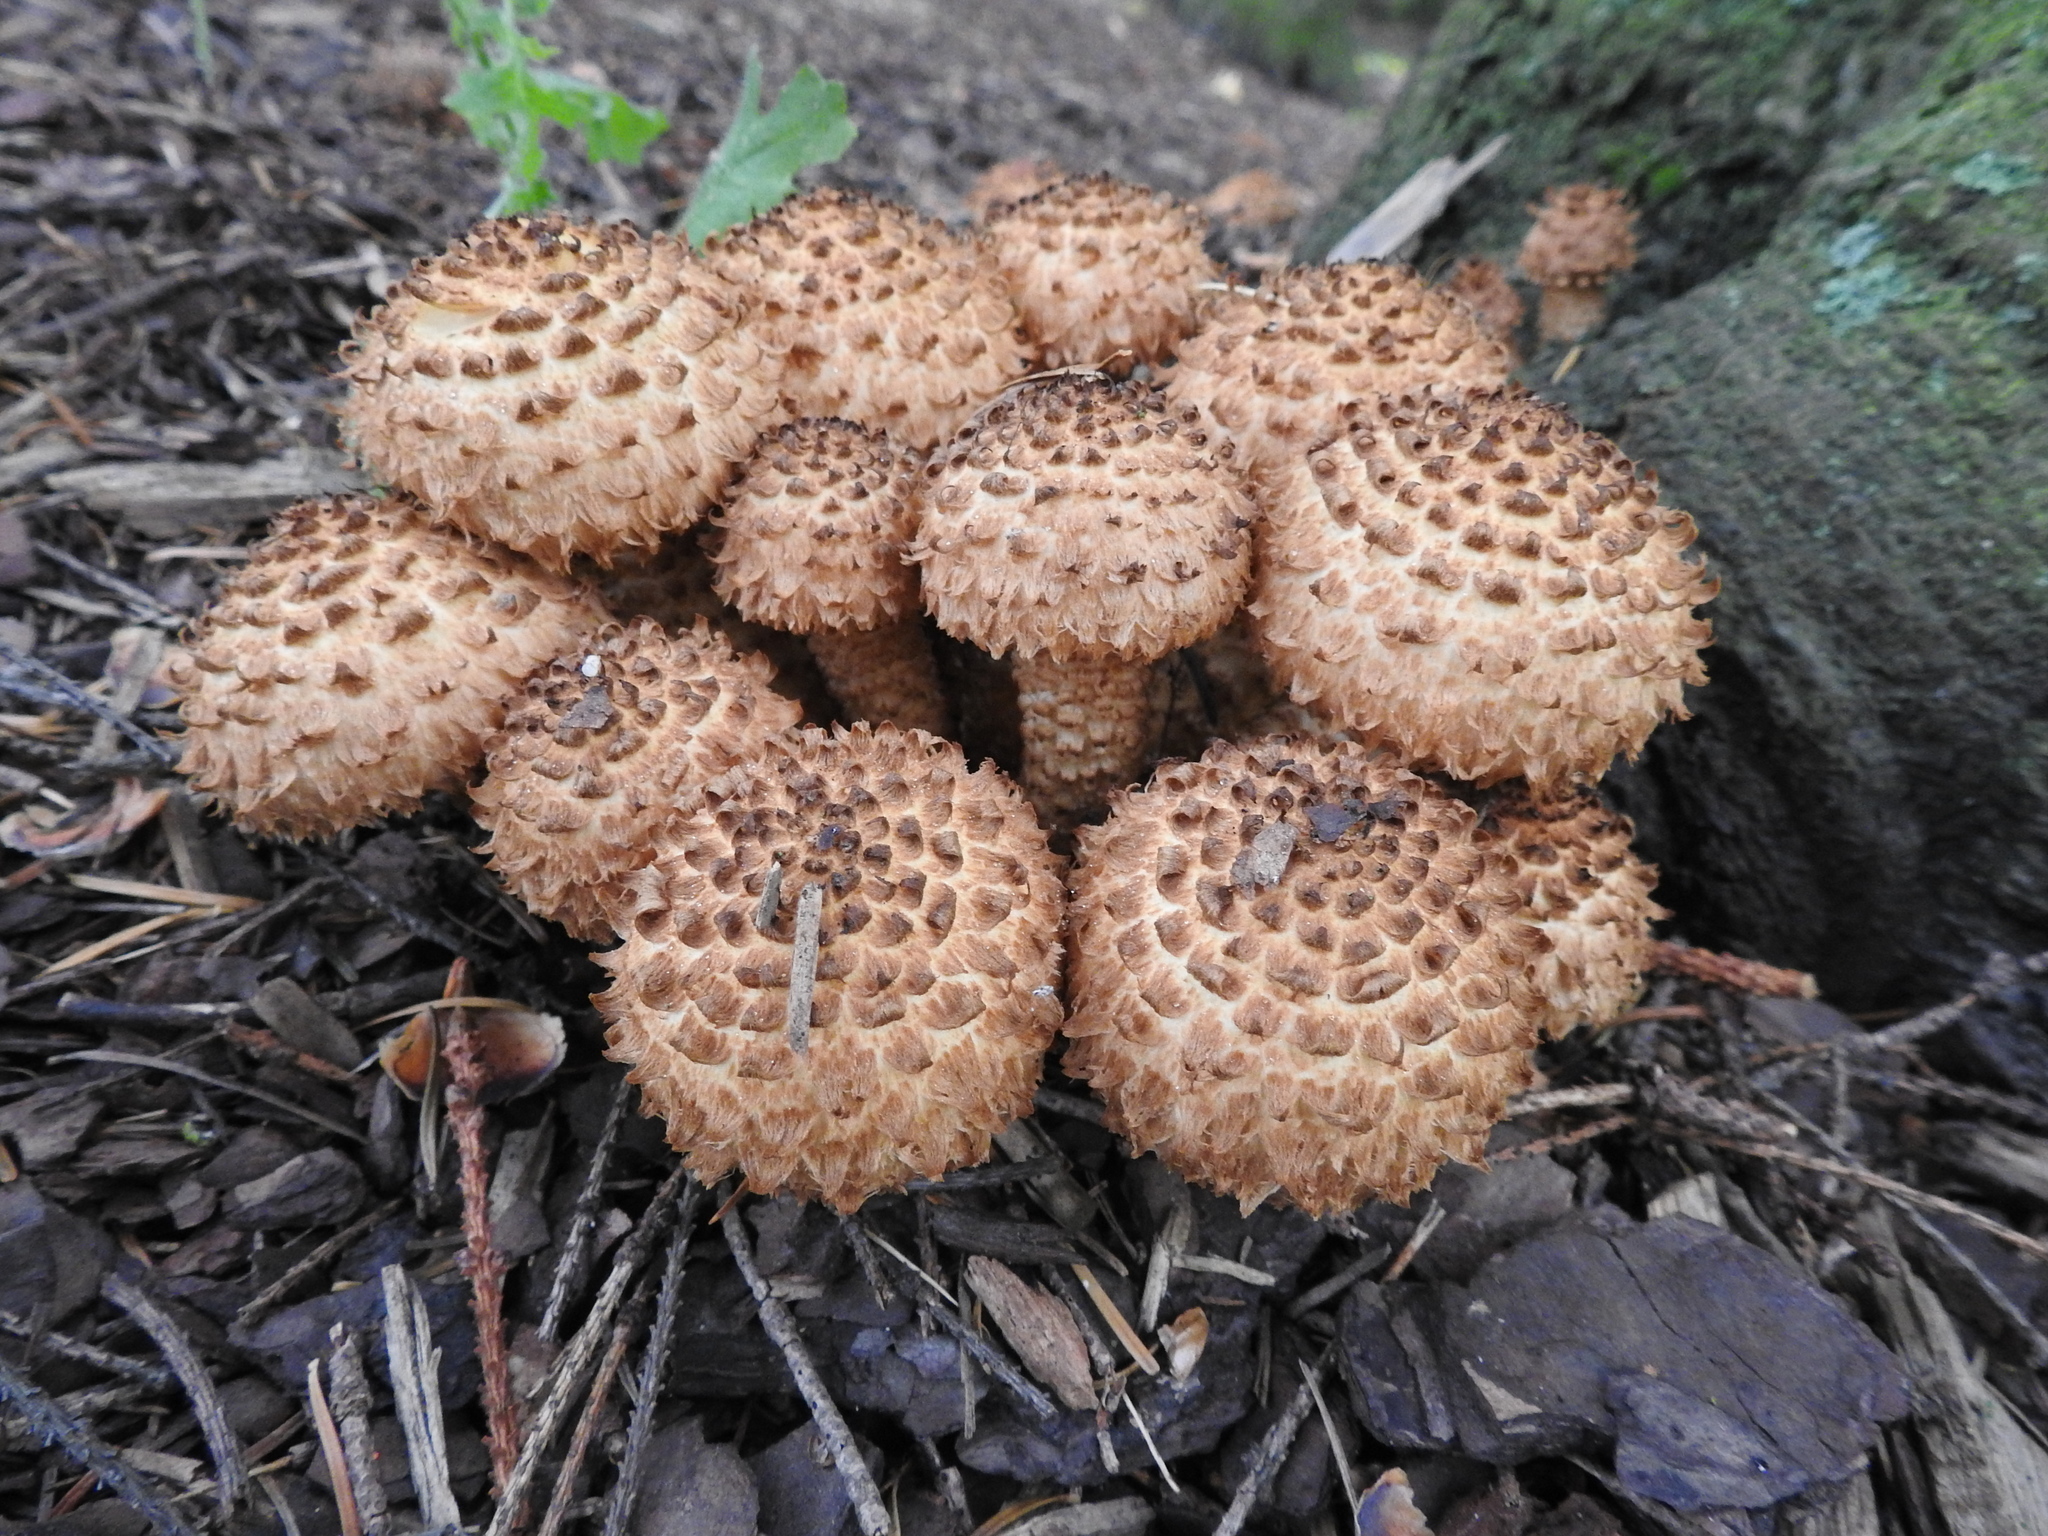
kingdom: Fungi
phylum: Basidiomycota
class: Agaricomycetes
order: Agaricales
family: Strophariaceae
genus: Pholiota
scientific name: Pholiota squarrosa
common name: Shaggy pholiota
